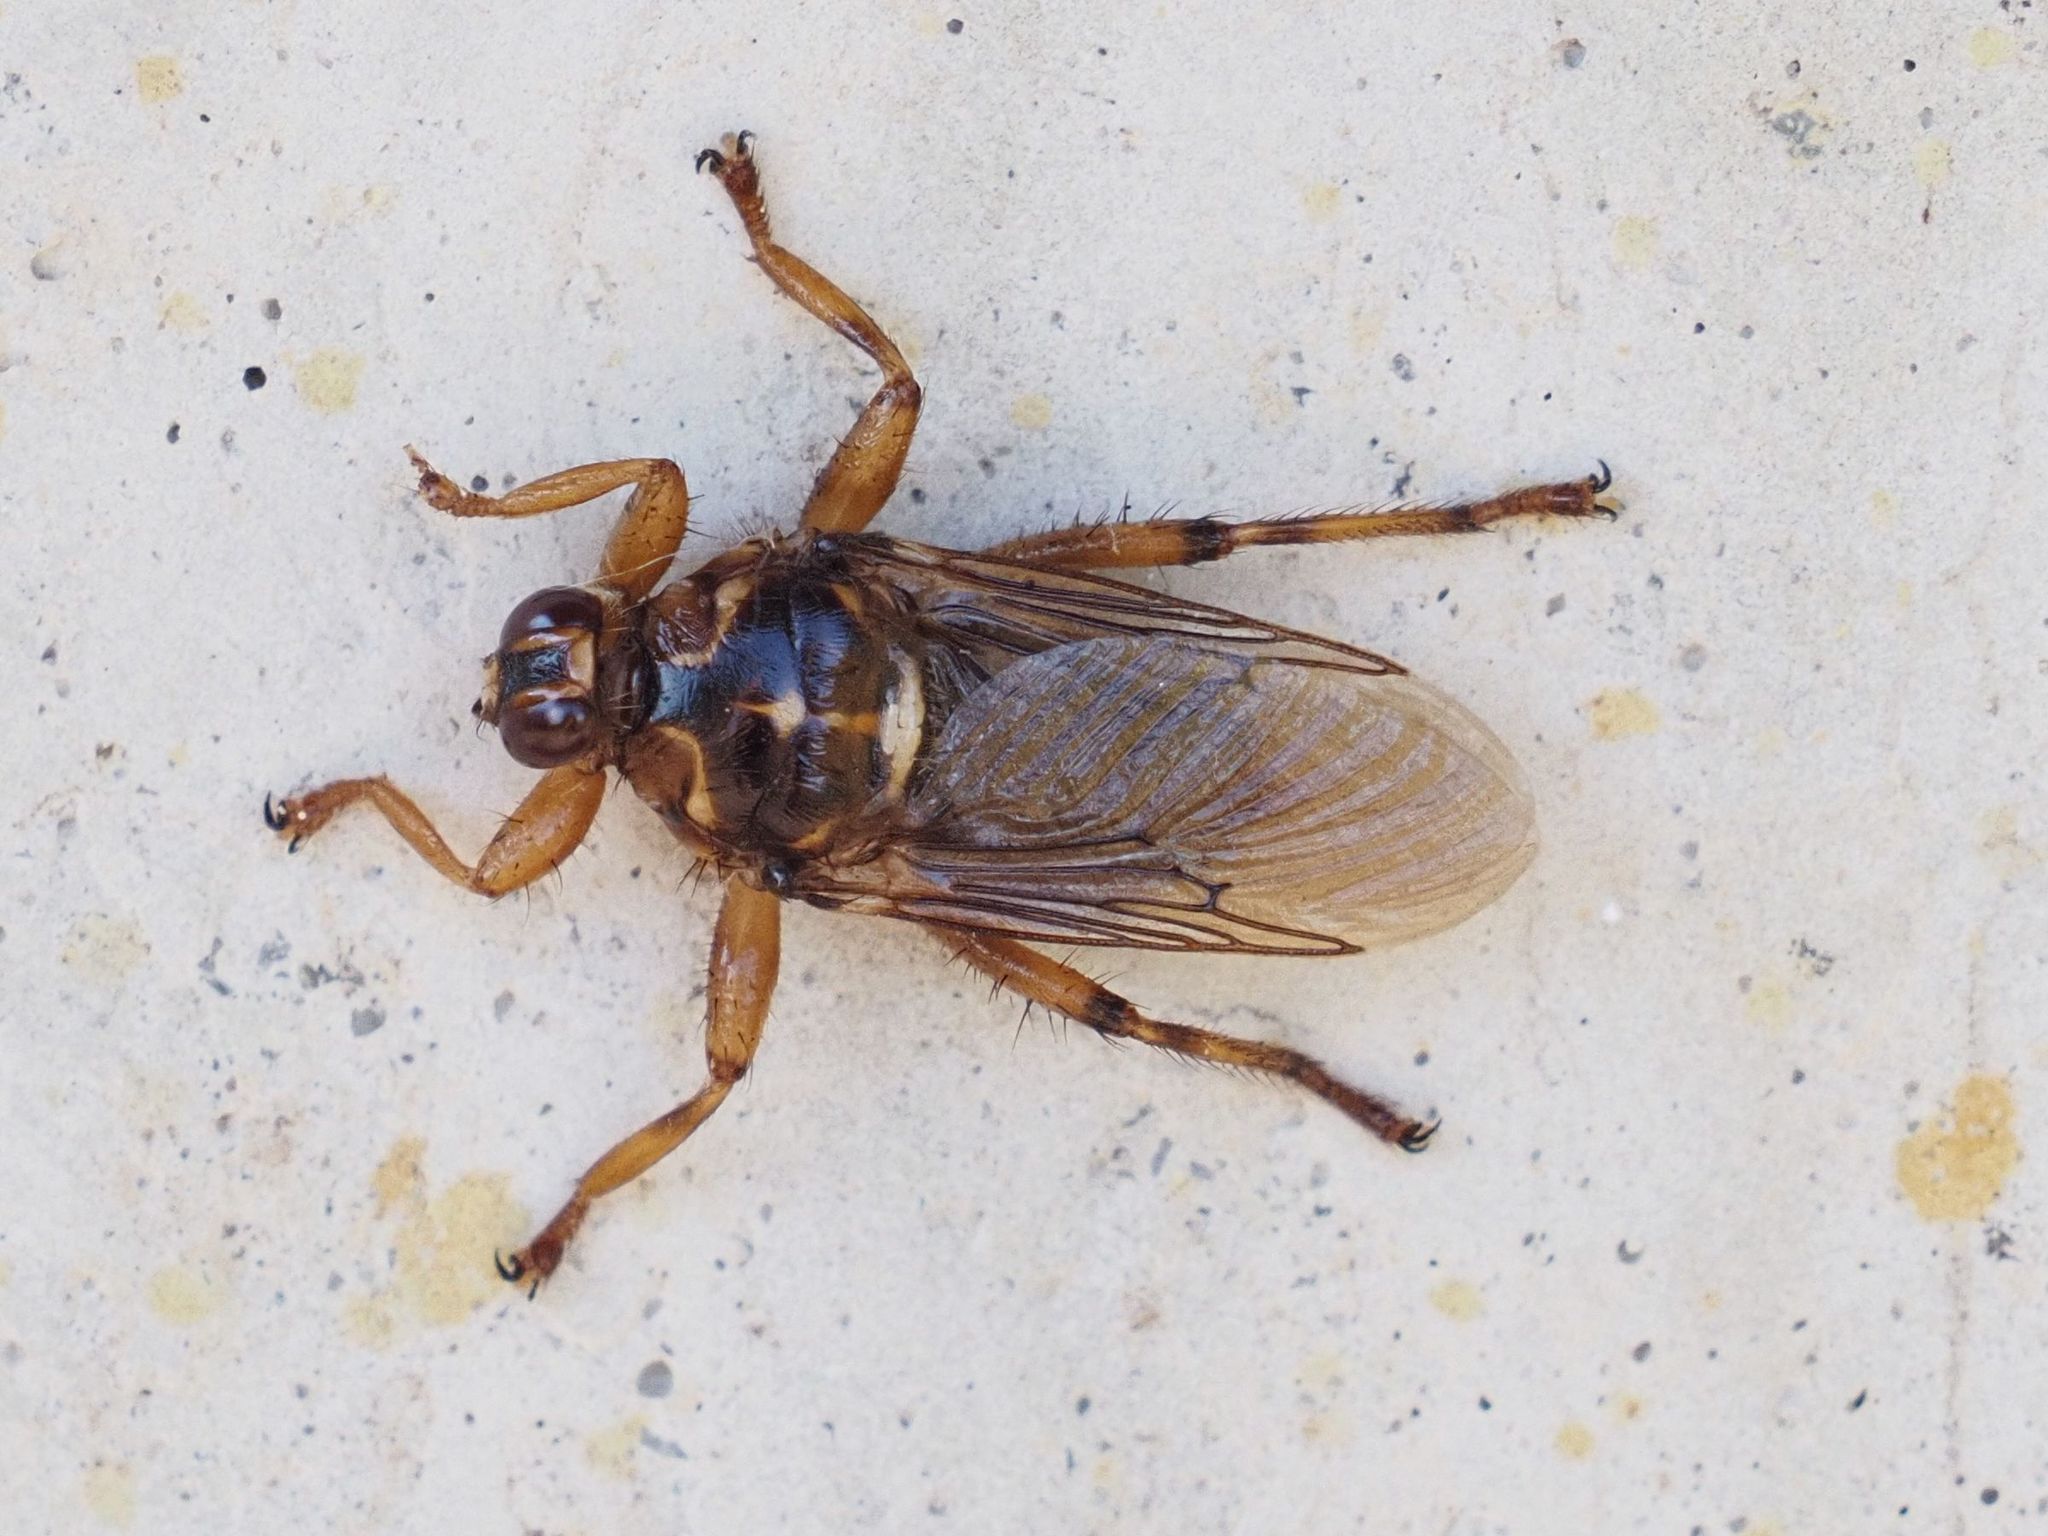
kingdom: Animalia
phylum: Arthropoda
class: Insecta
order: Diptera
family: Hippoboscidae
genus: Hippobosca
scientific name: Hippobosca equina
